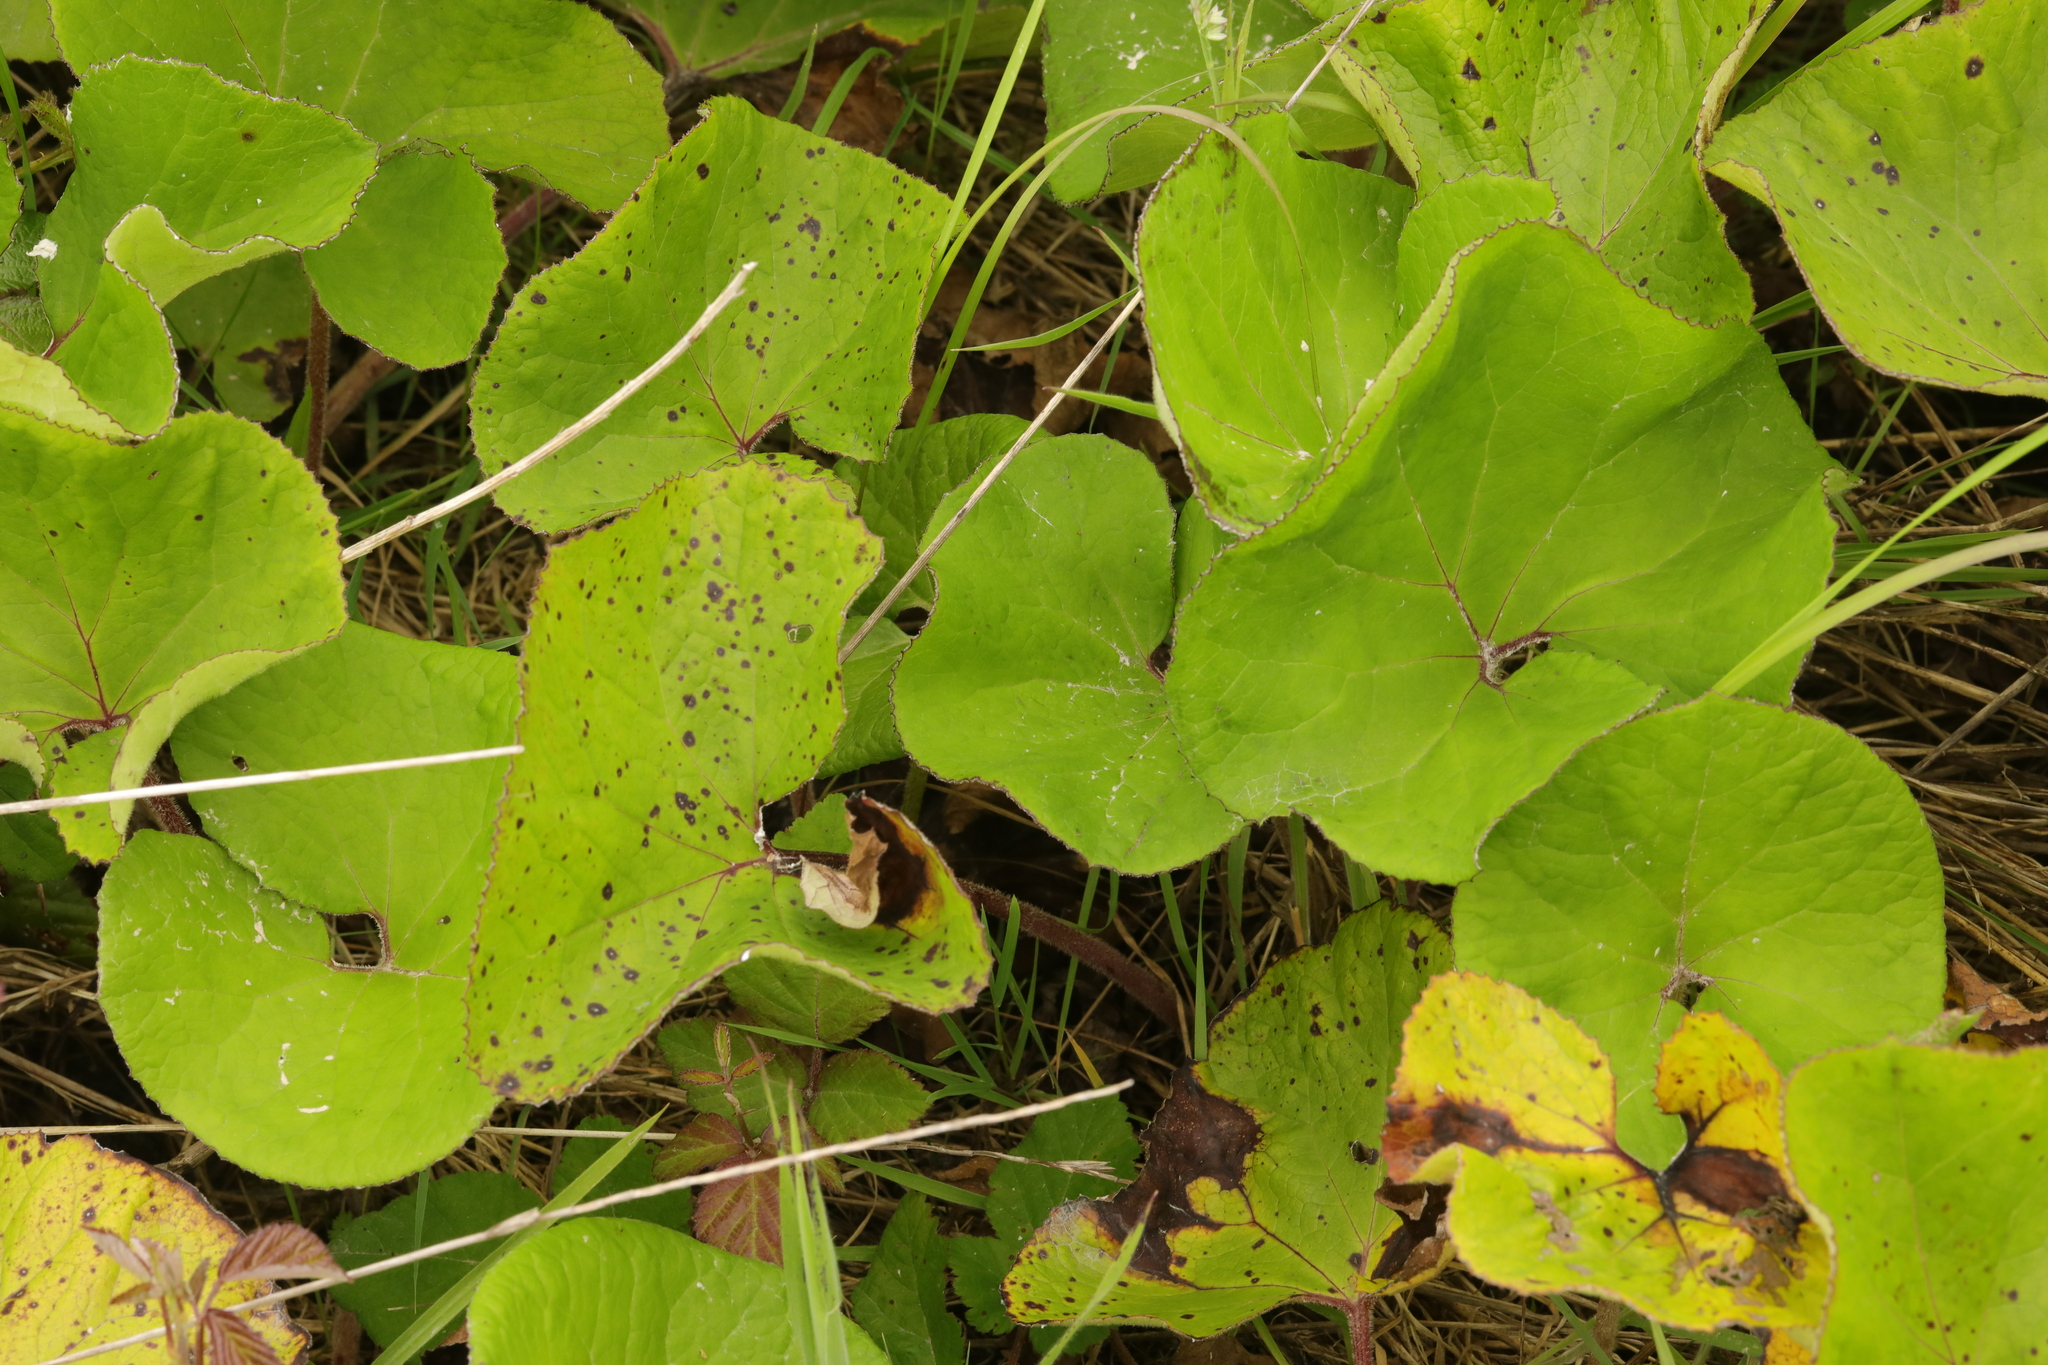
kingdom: Plantae
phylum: Tracheophyta
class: Magnoliopsida
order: Asterales
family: Asteraceae
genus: Tussilago
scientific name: Tussilago farfara
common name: Coltsfoot
